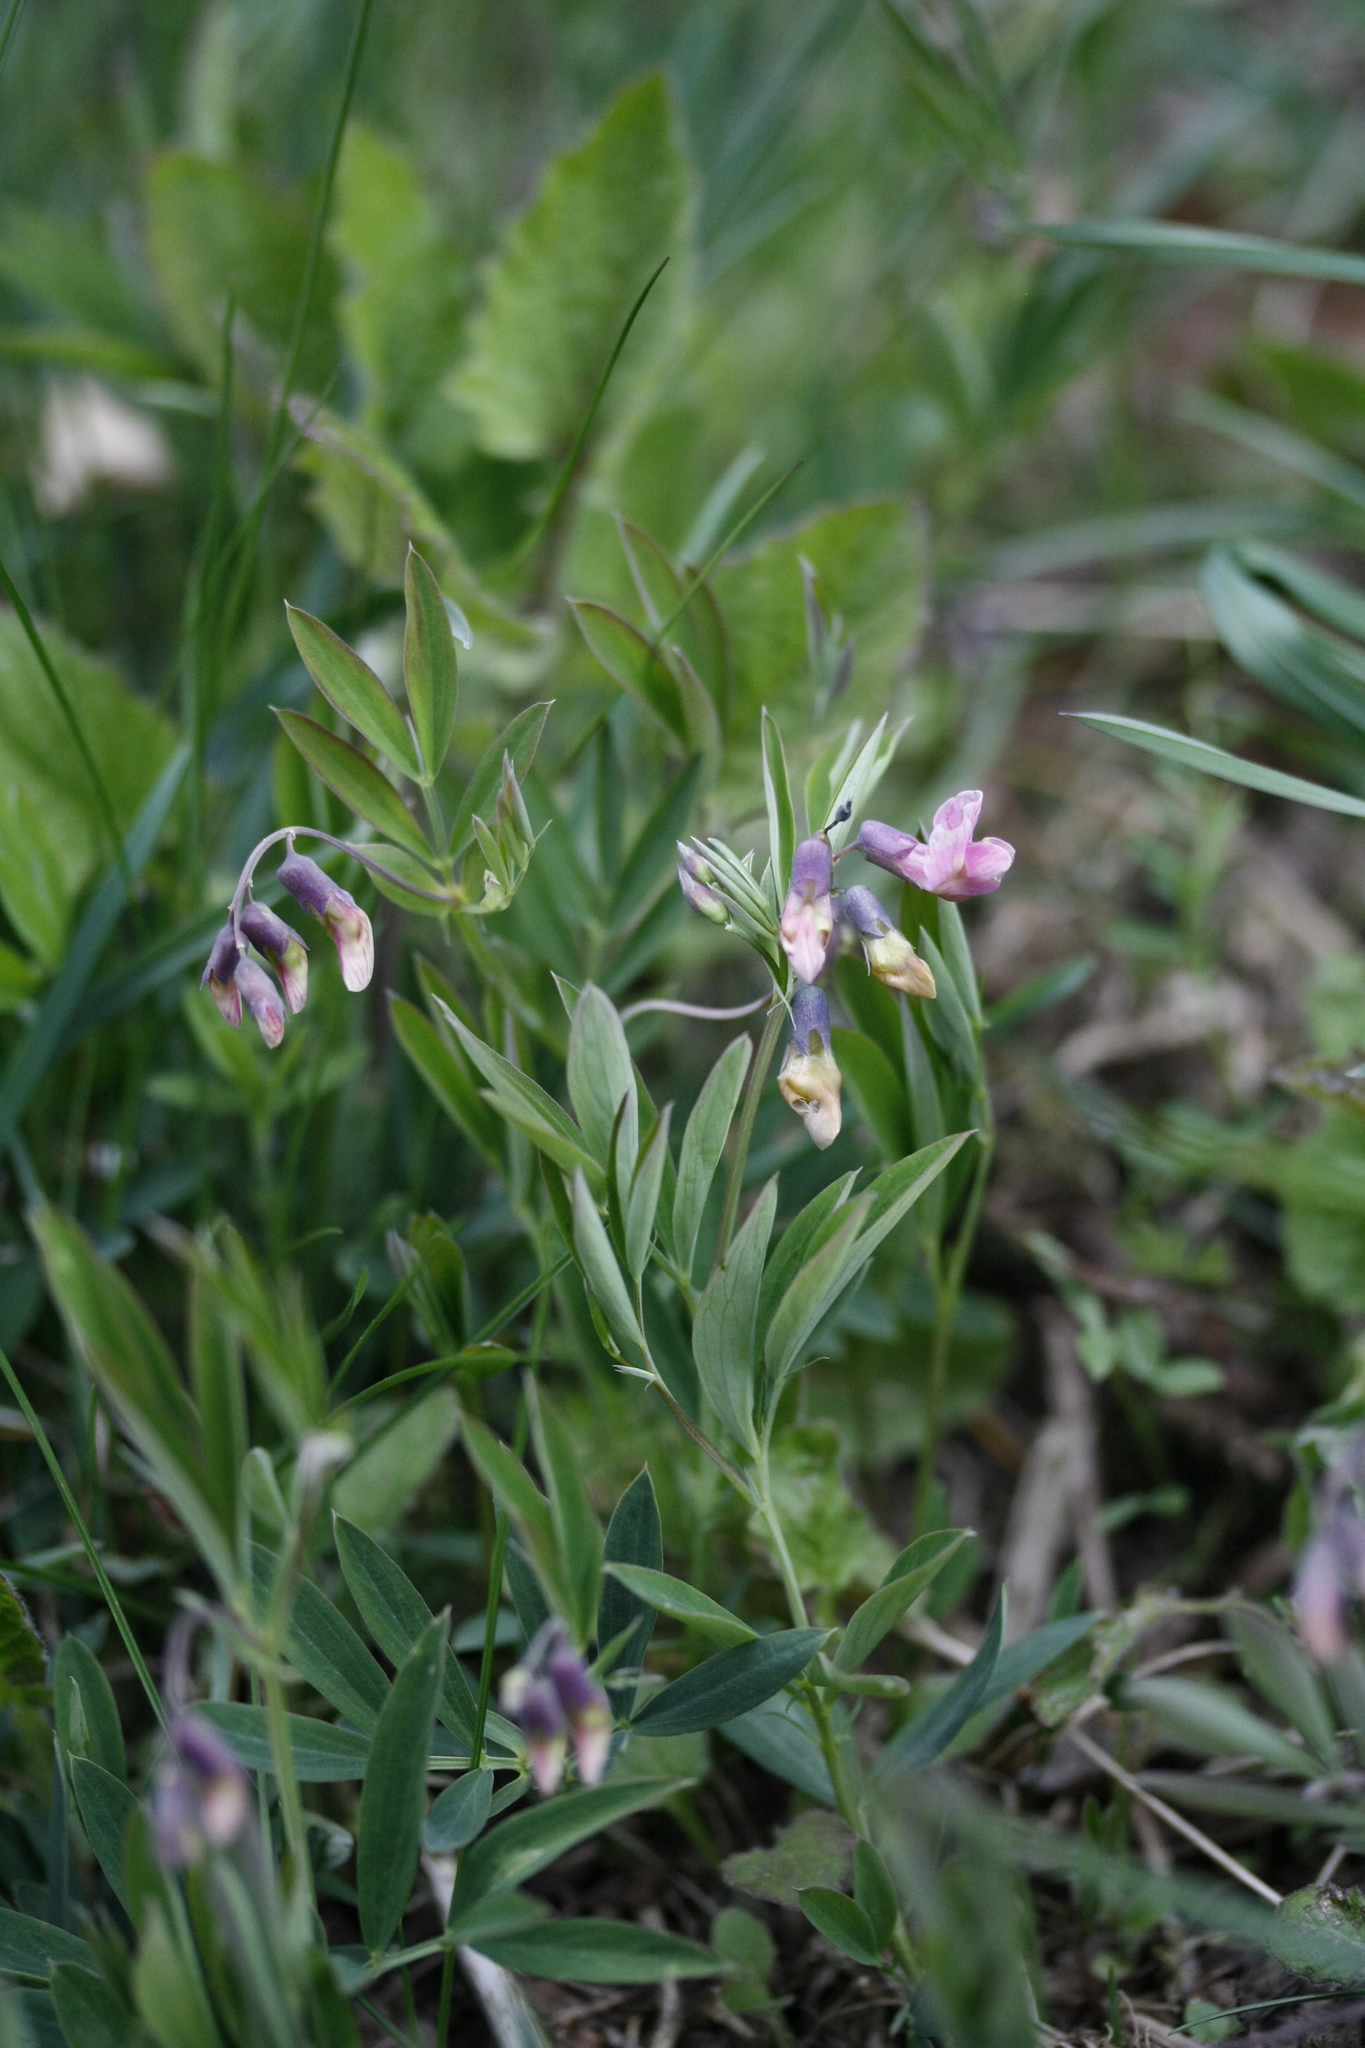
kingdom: Plantae
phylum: Tracheophyta
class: Magnoliopsida
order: Fabales
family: Fabaceae
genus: Lathyrus
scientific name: Lathyrus linifolius
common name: Bitter-vetch
